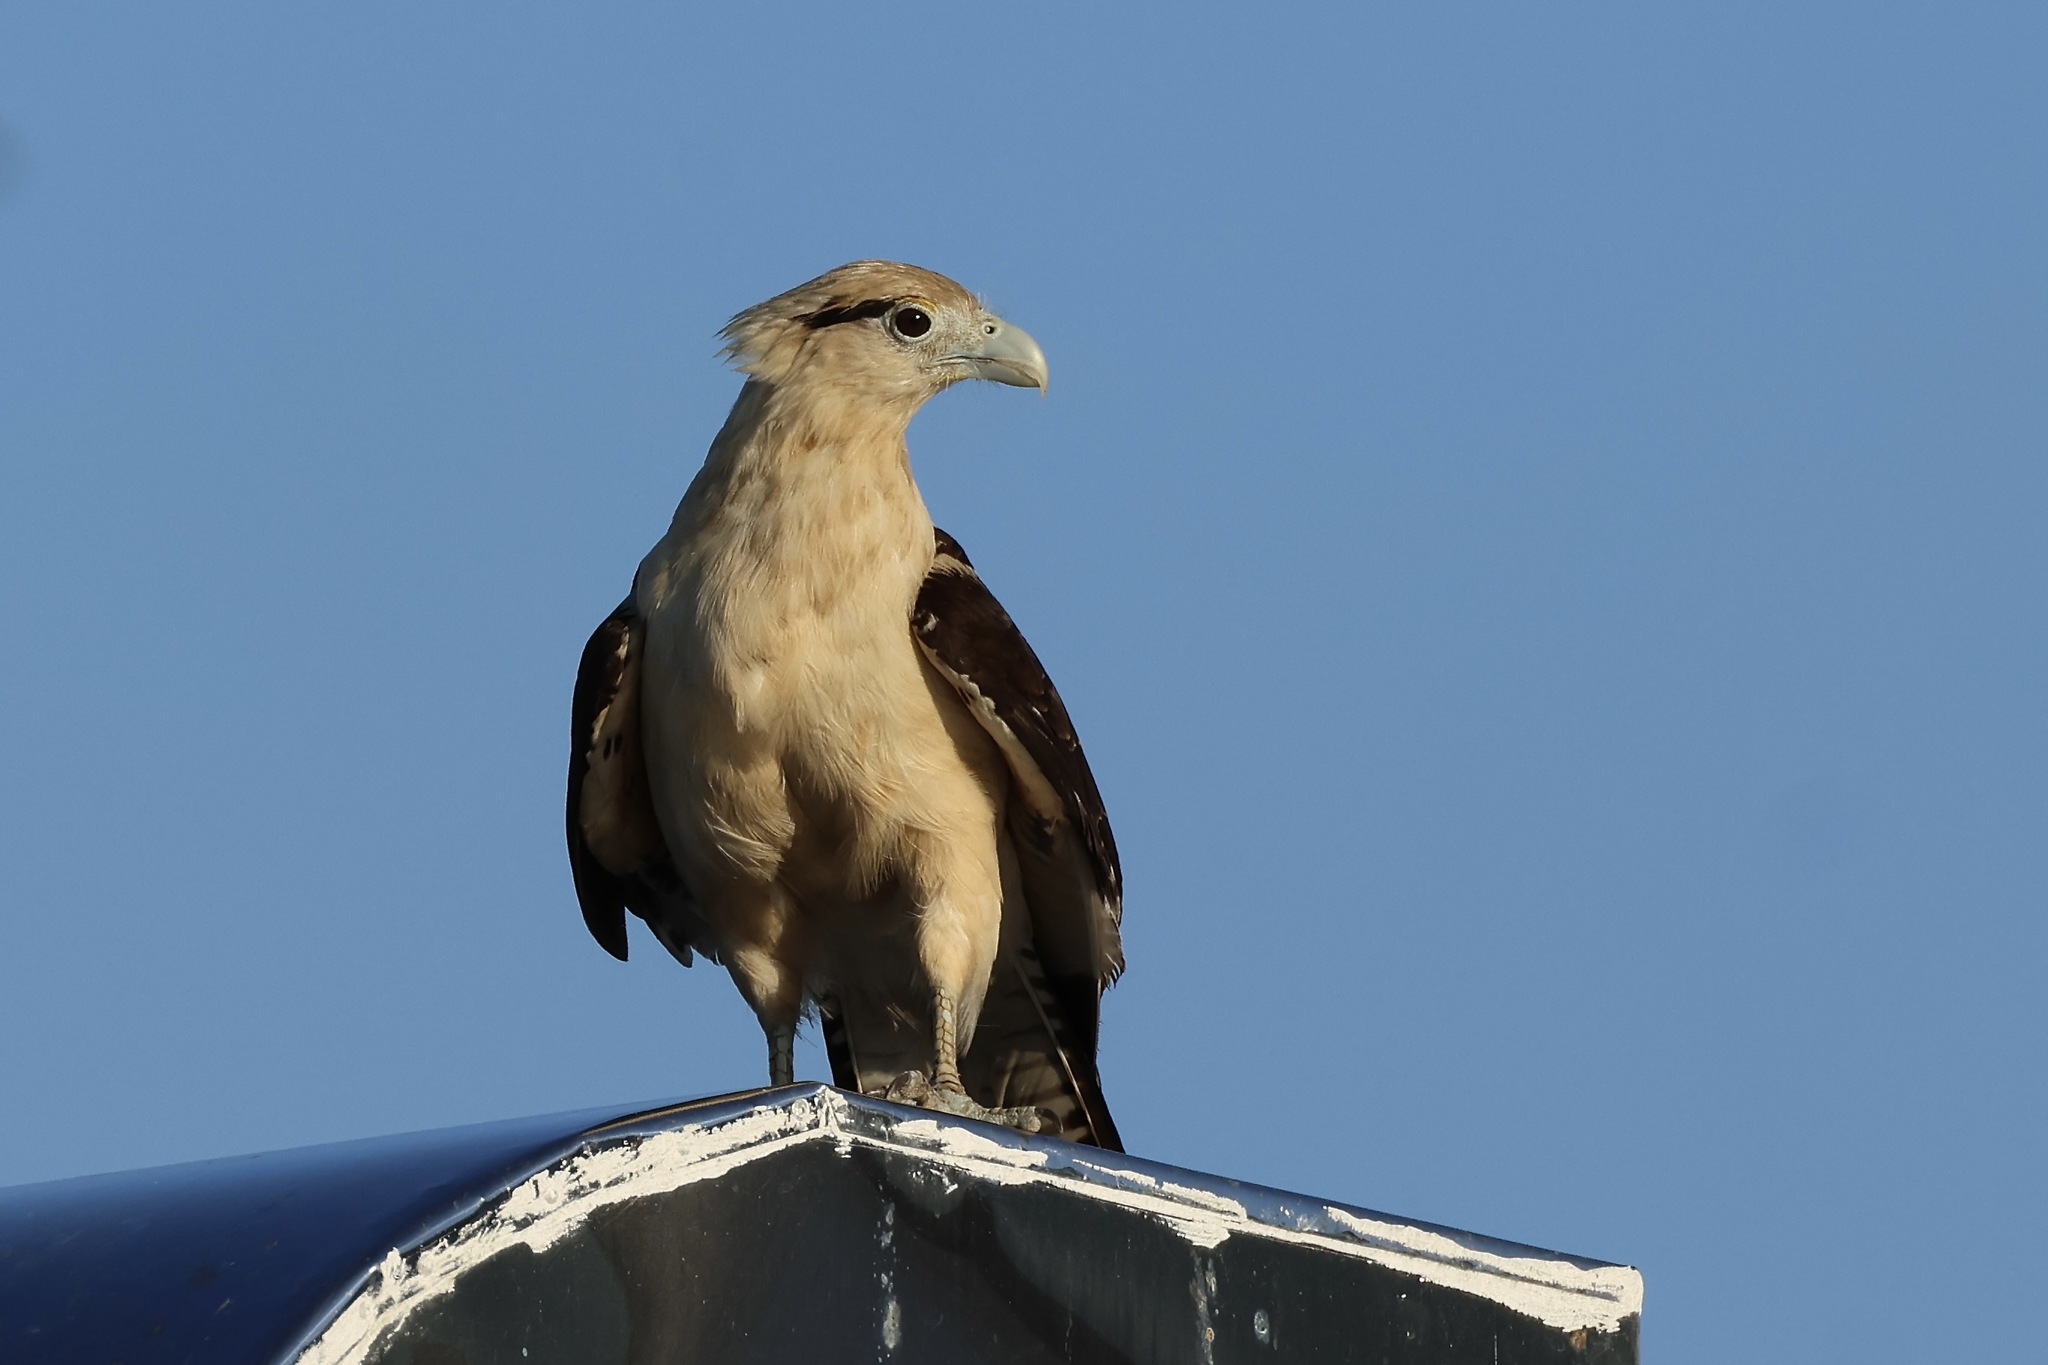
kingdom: Animalia
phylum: Chordata
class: Aves
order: Falconiformes
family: Falconidae
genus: Daptrius
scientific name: Daptrius
